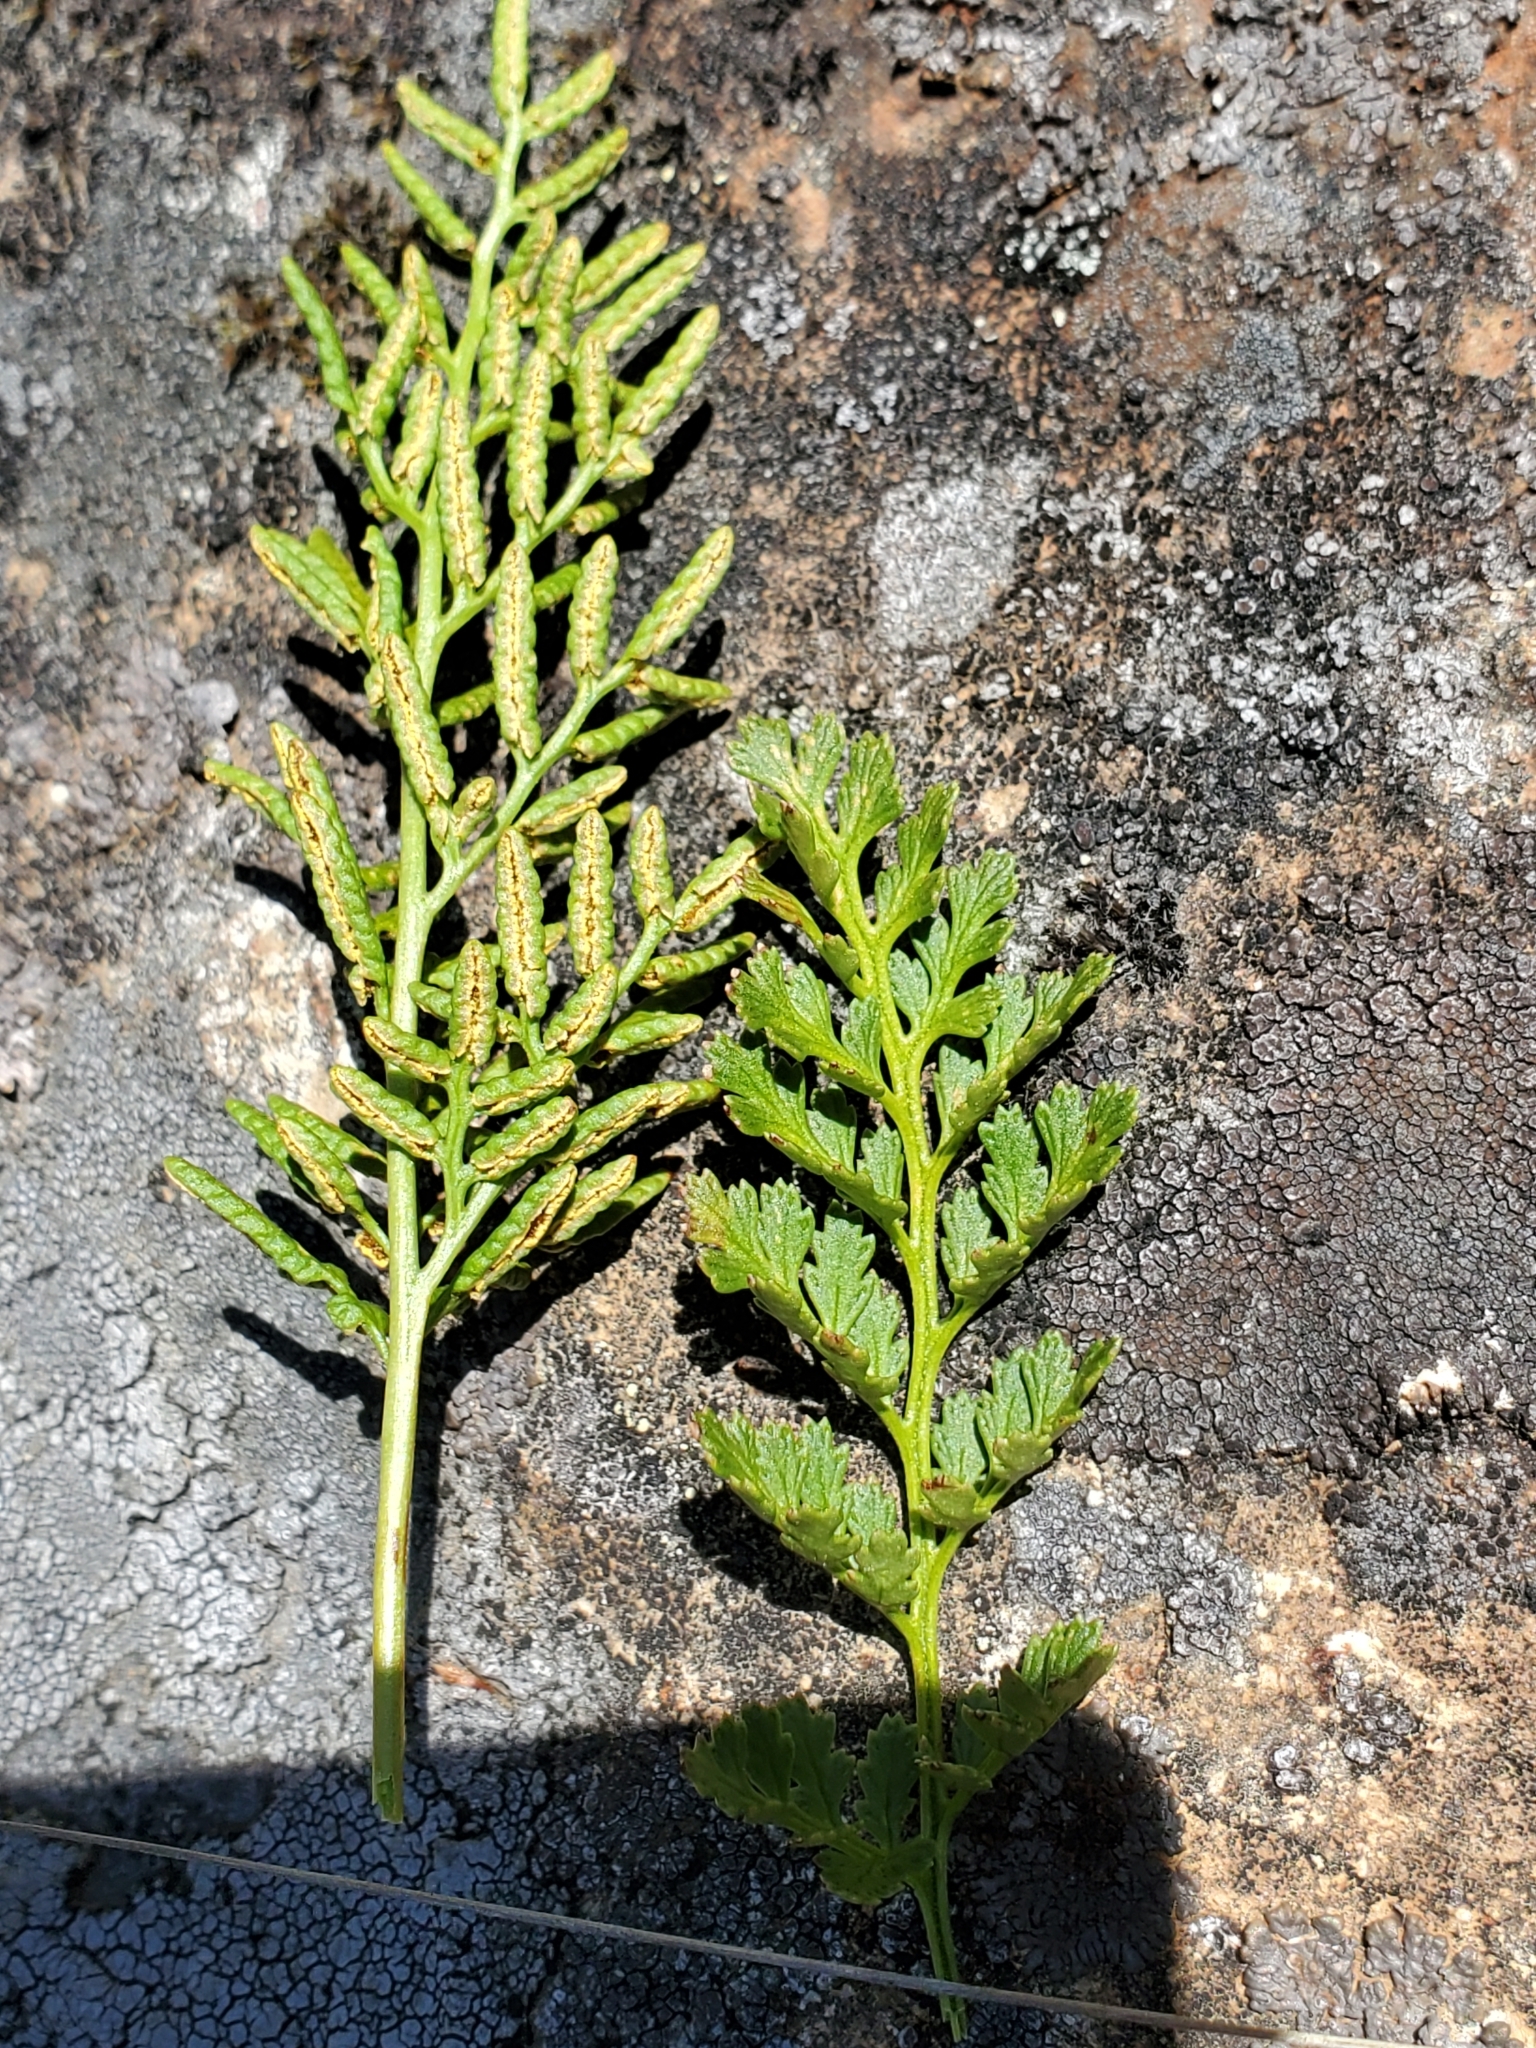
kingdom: Plantae
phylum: Tracheophyta
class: Polypodiopsida
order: Polypodiales
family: Pteridaceae
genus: Cryptogramma
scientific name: Cryptogramma acrostichoides
